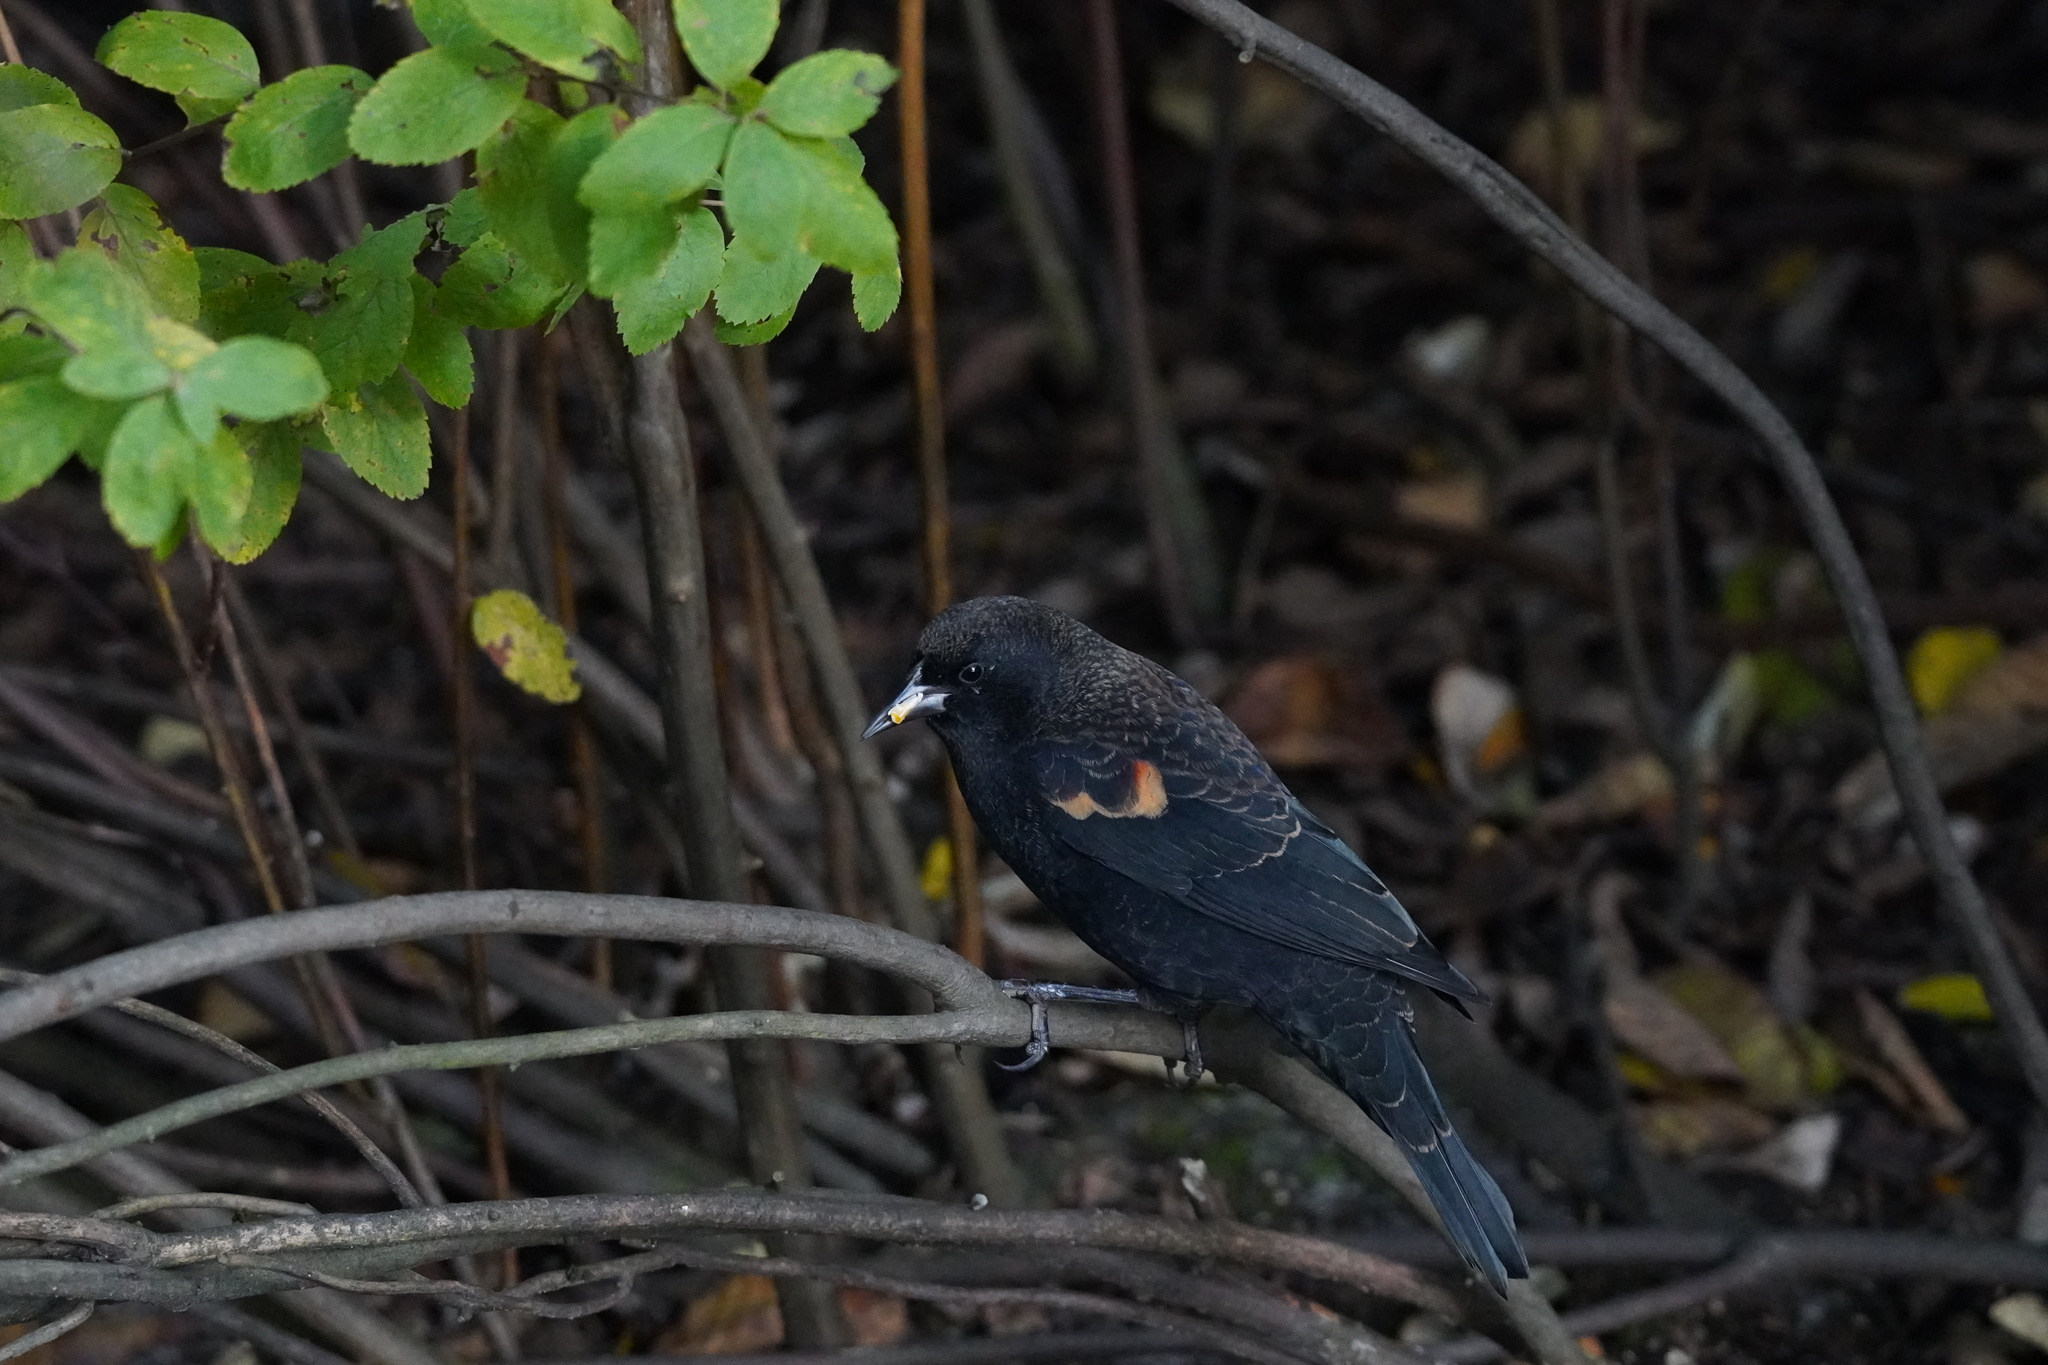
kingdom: Animalia
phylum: Chordata
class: Aves
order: Passeriformes
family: Icteridae
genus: Agelaius
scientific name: Agelaius phoeniceus
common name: Red-winged blackbird
